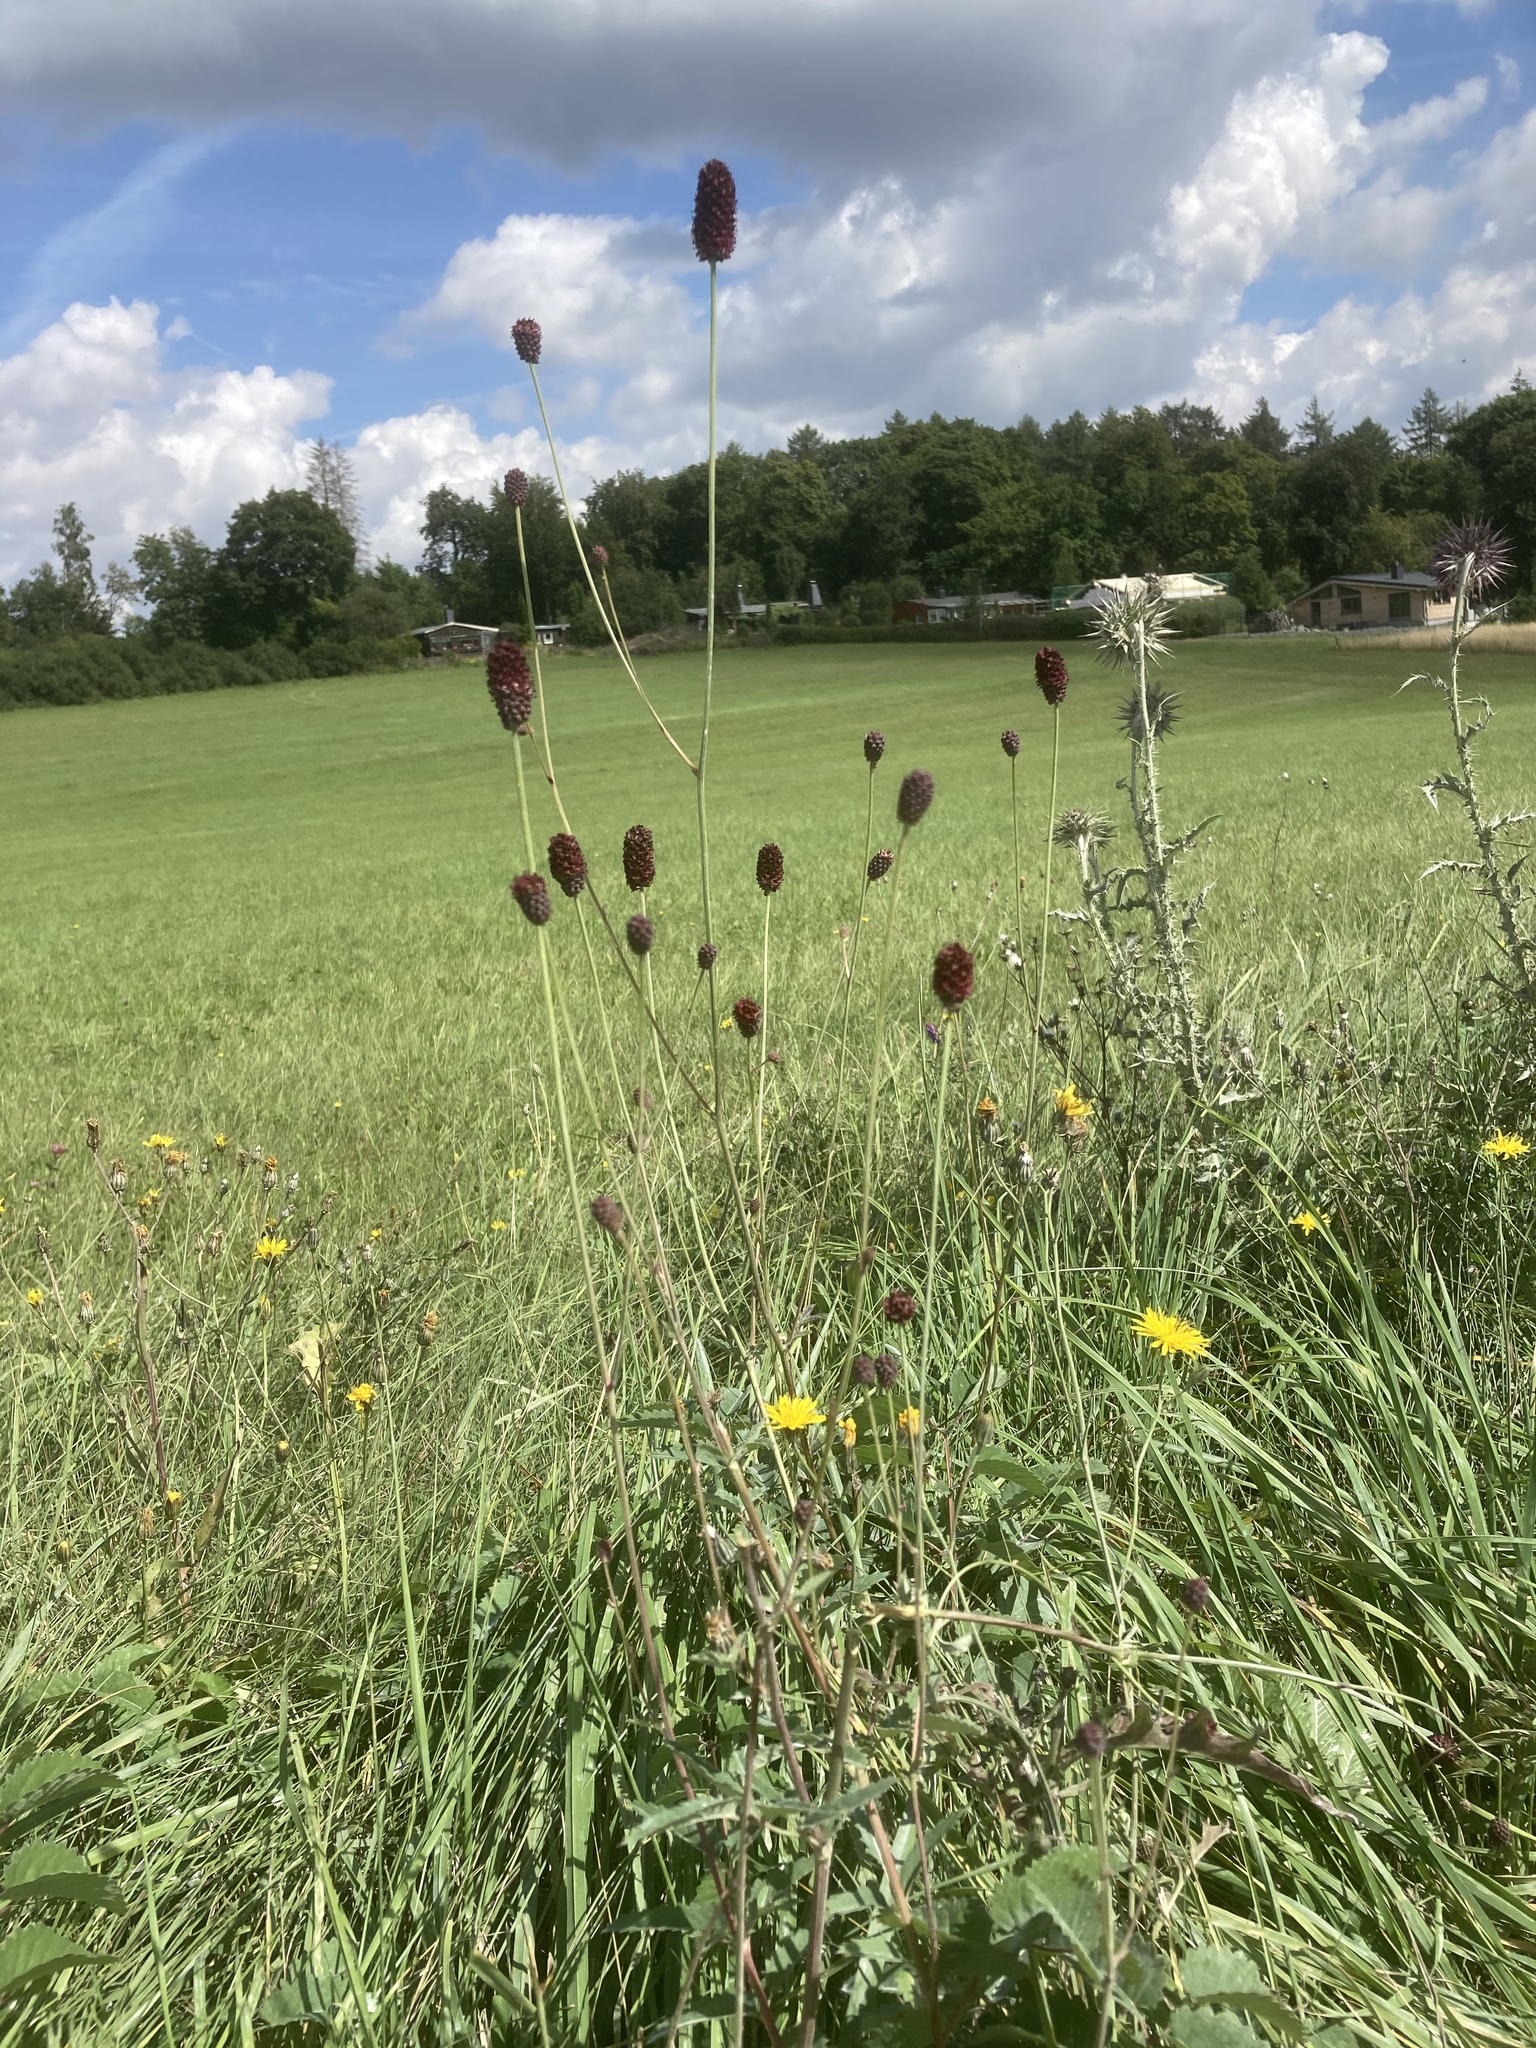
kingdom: Plantae
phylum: Tracheophyta
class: Magnoliopsida
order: Rosales
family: Rosaceae
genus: Sanguisorba
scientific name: Sanguisorba officinalis
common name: Great burnet
